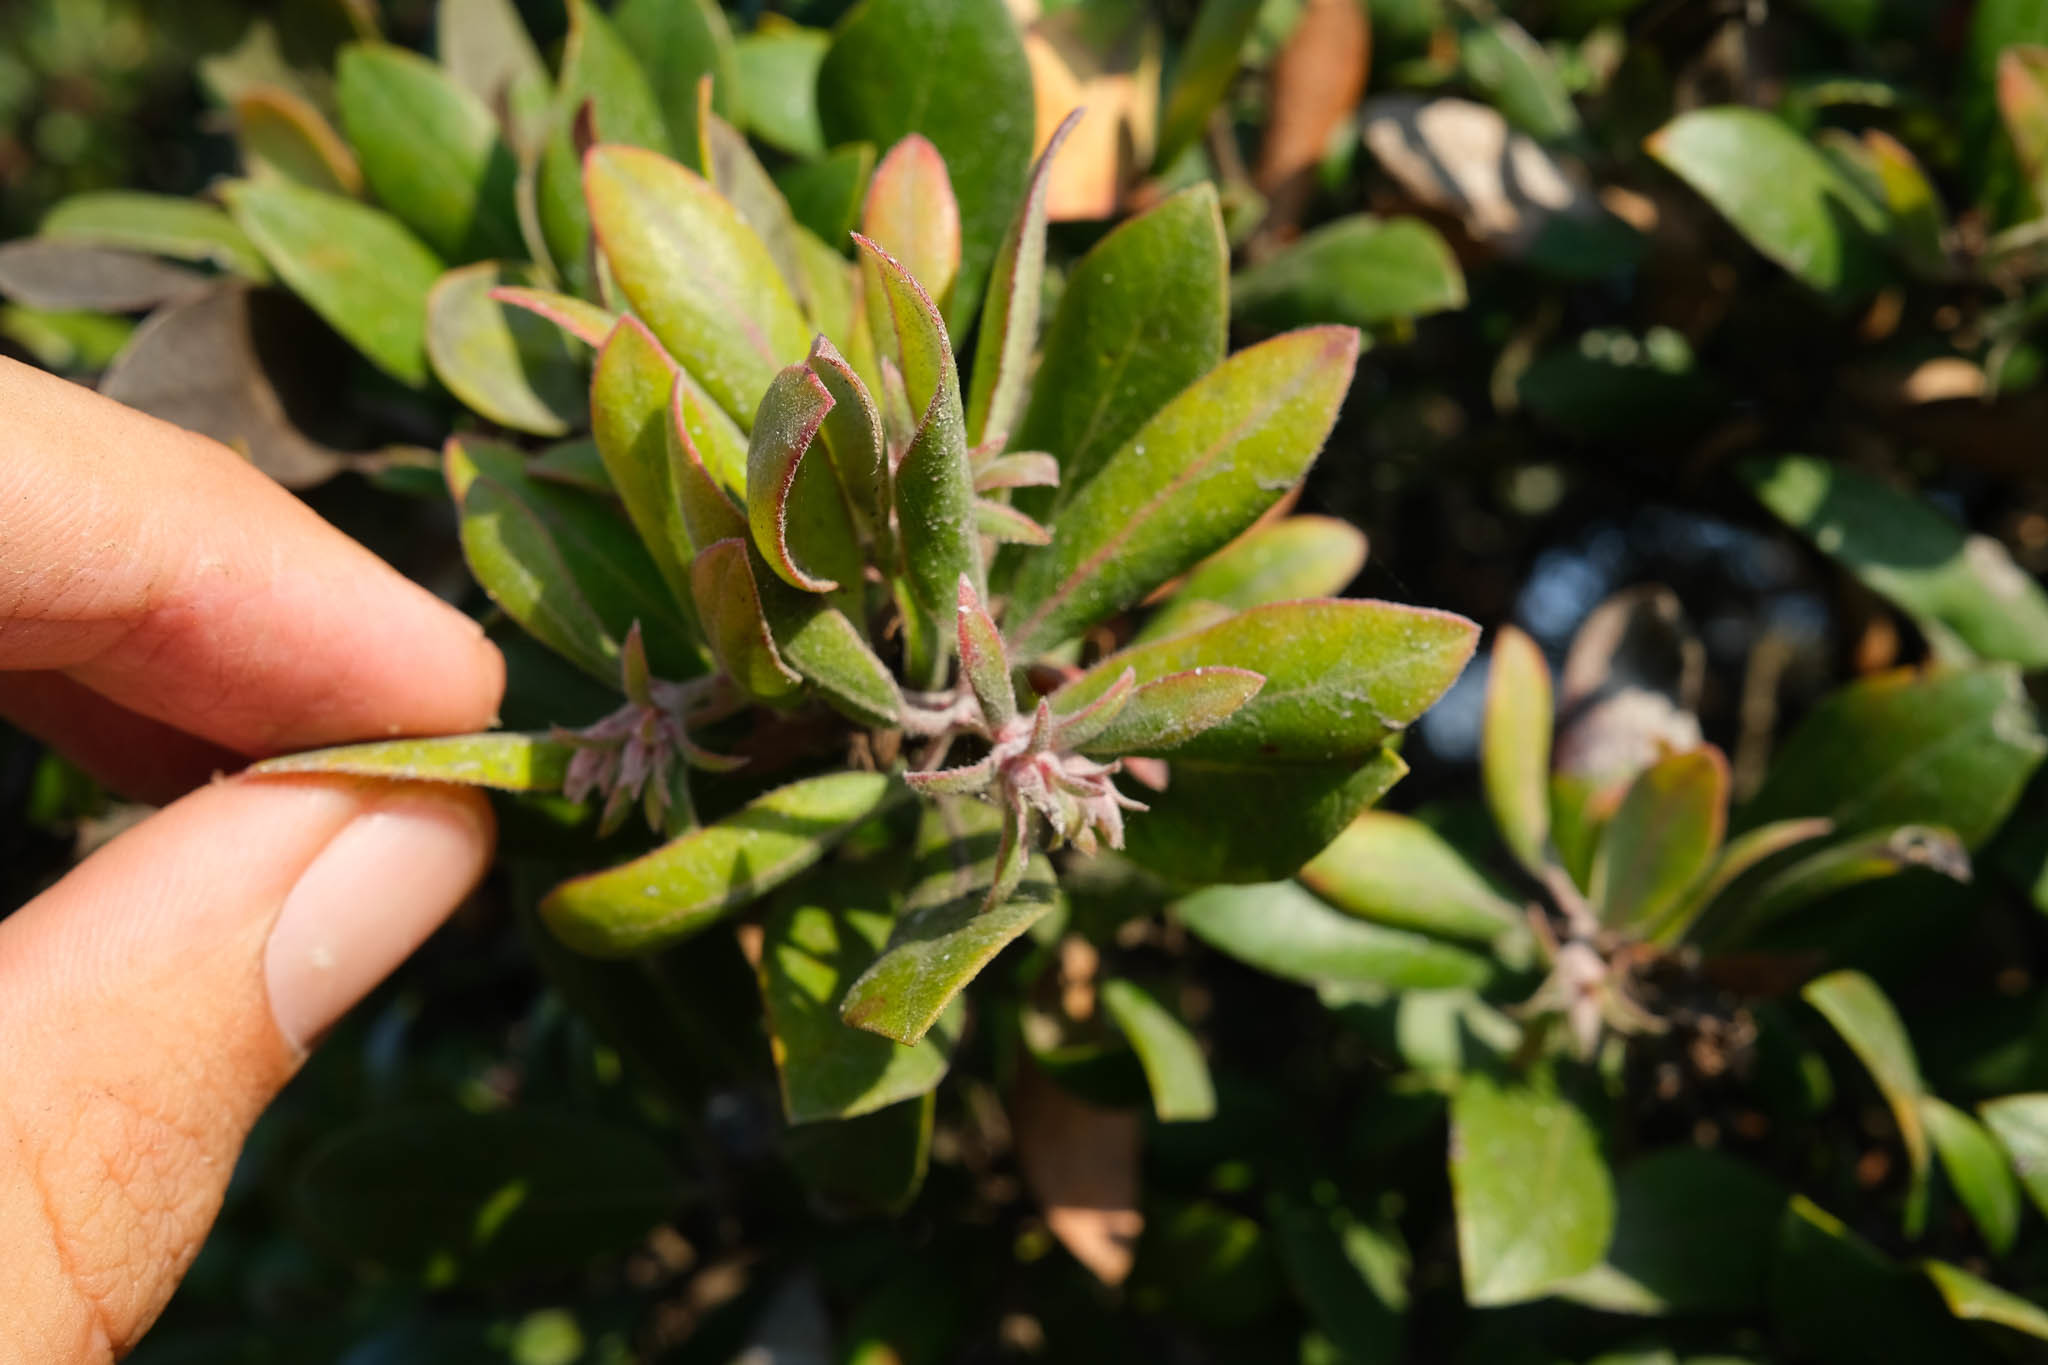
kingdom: Plantae
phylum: Tracheophyta
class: Magnoliopsida
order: Ericales
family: Ericaceae
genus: Arctostaphylos
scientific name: Arctostaphylos tomentosa
